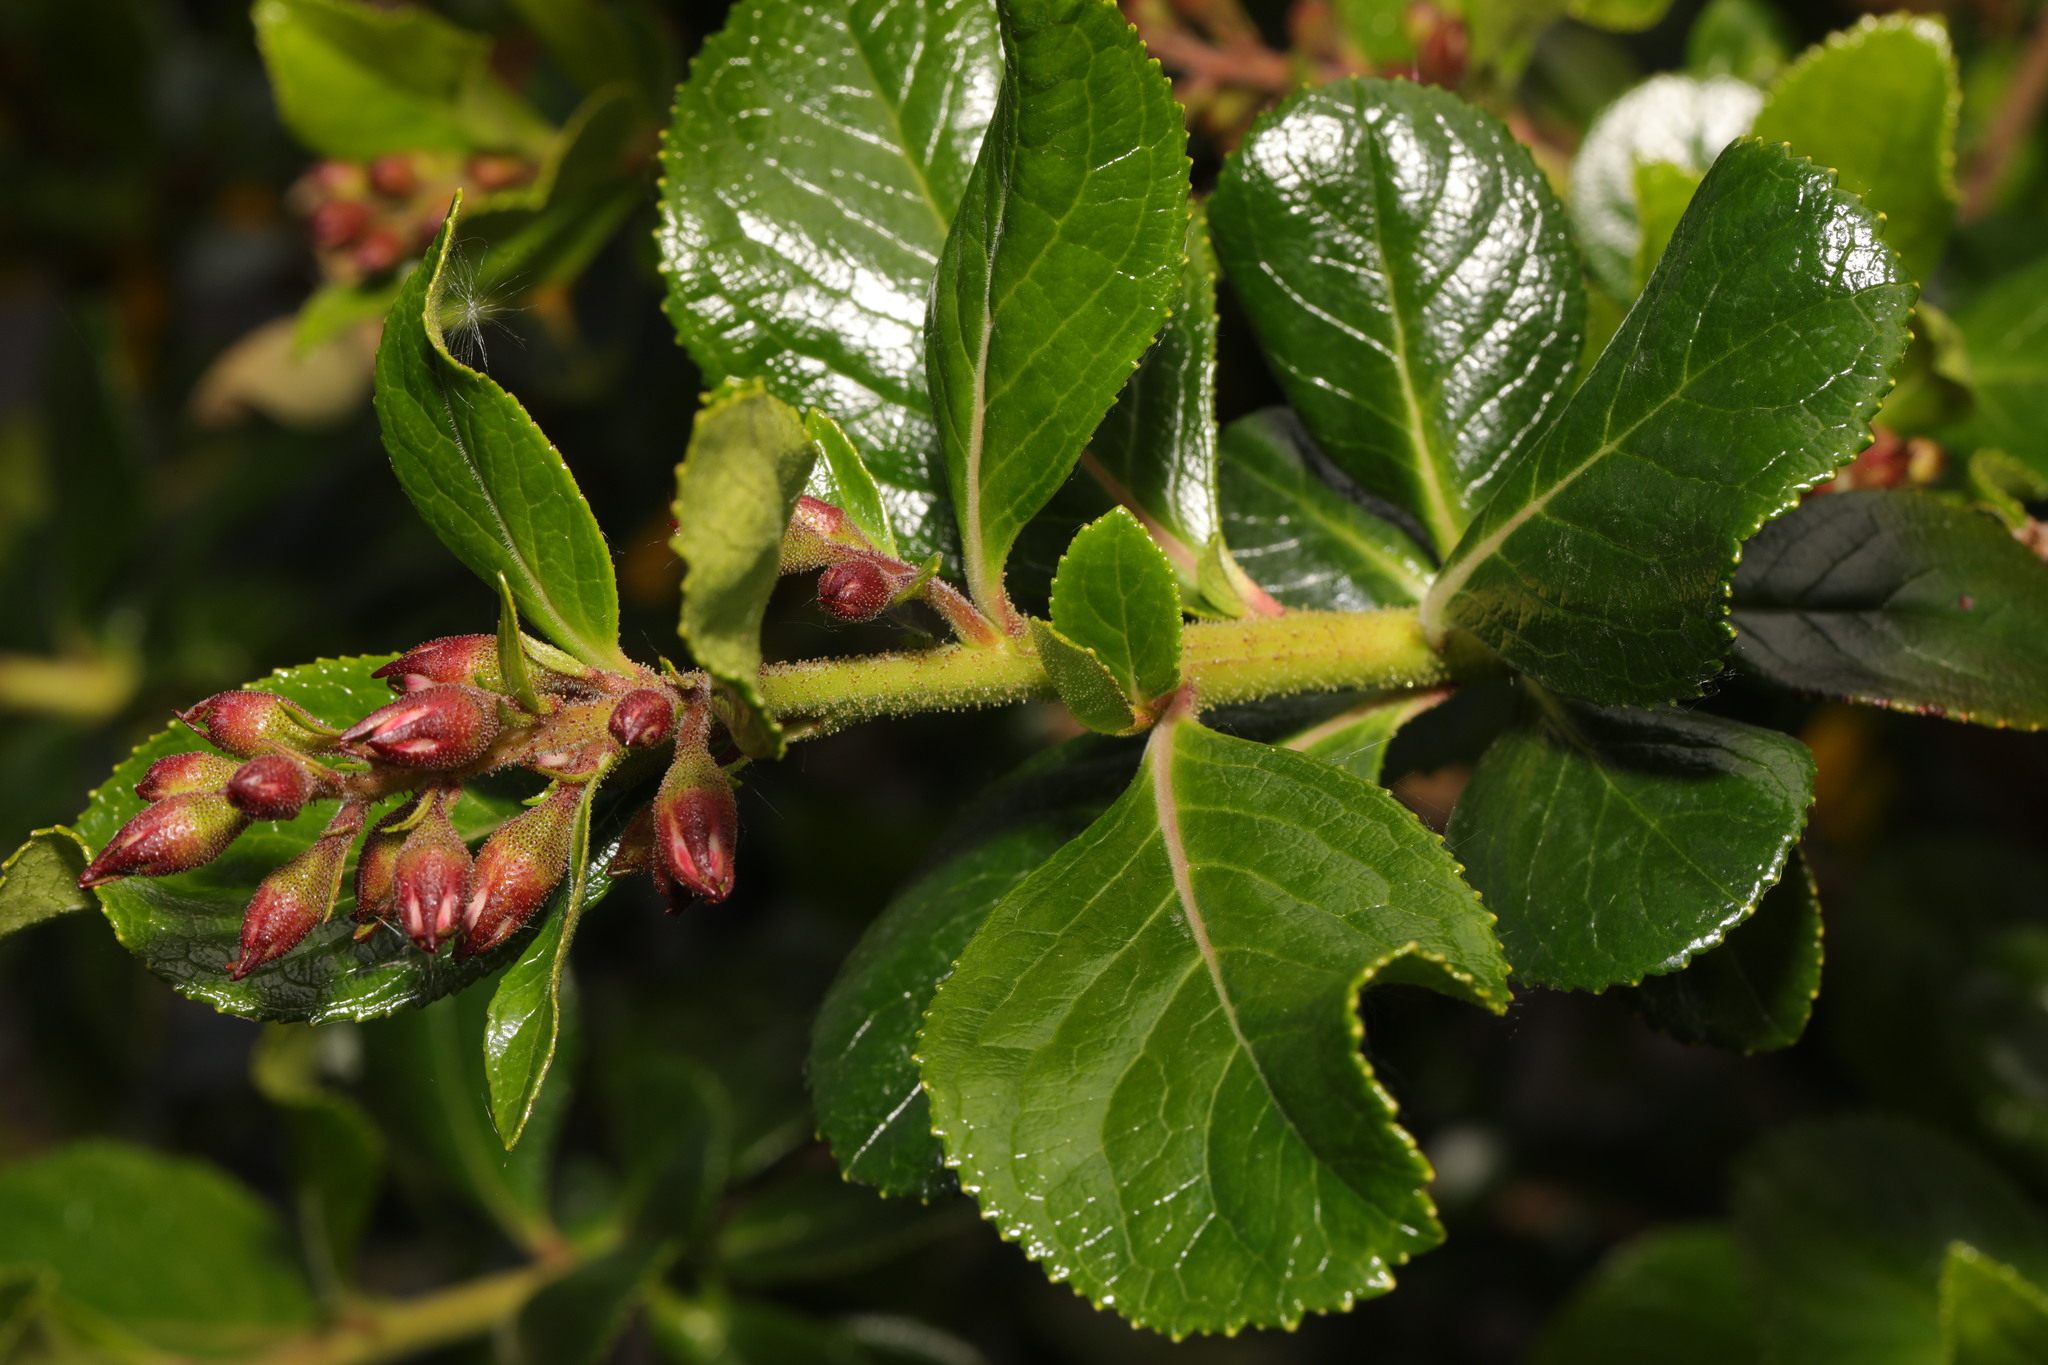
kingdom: Plantae
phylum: Tracheophyta
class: Magnoliopsida
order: Escalloniales
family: Escalloniaceae
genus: Escallonia
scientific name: Escallonia rubra
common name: Redclaws
